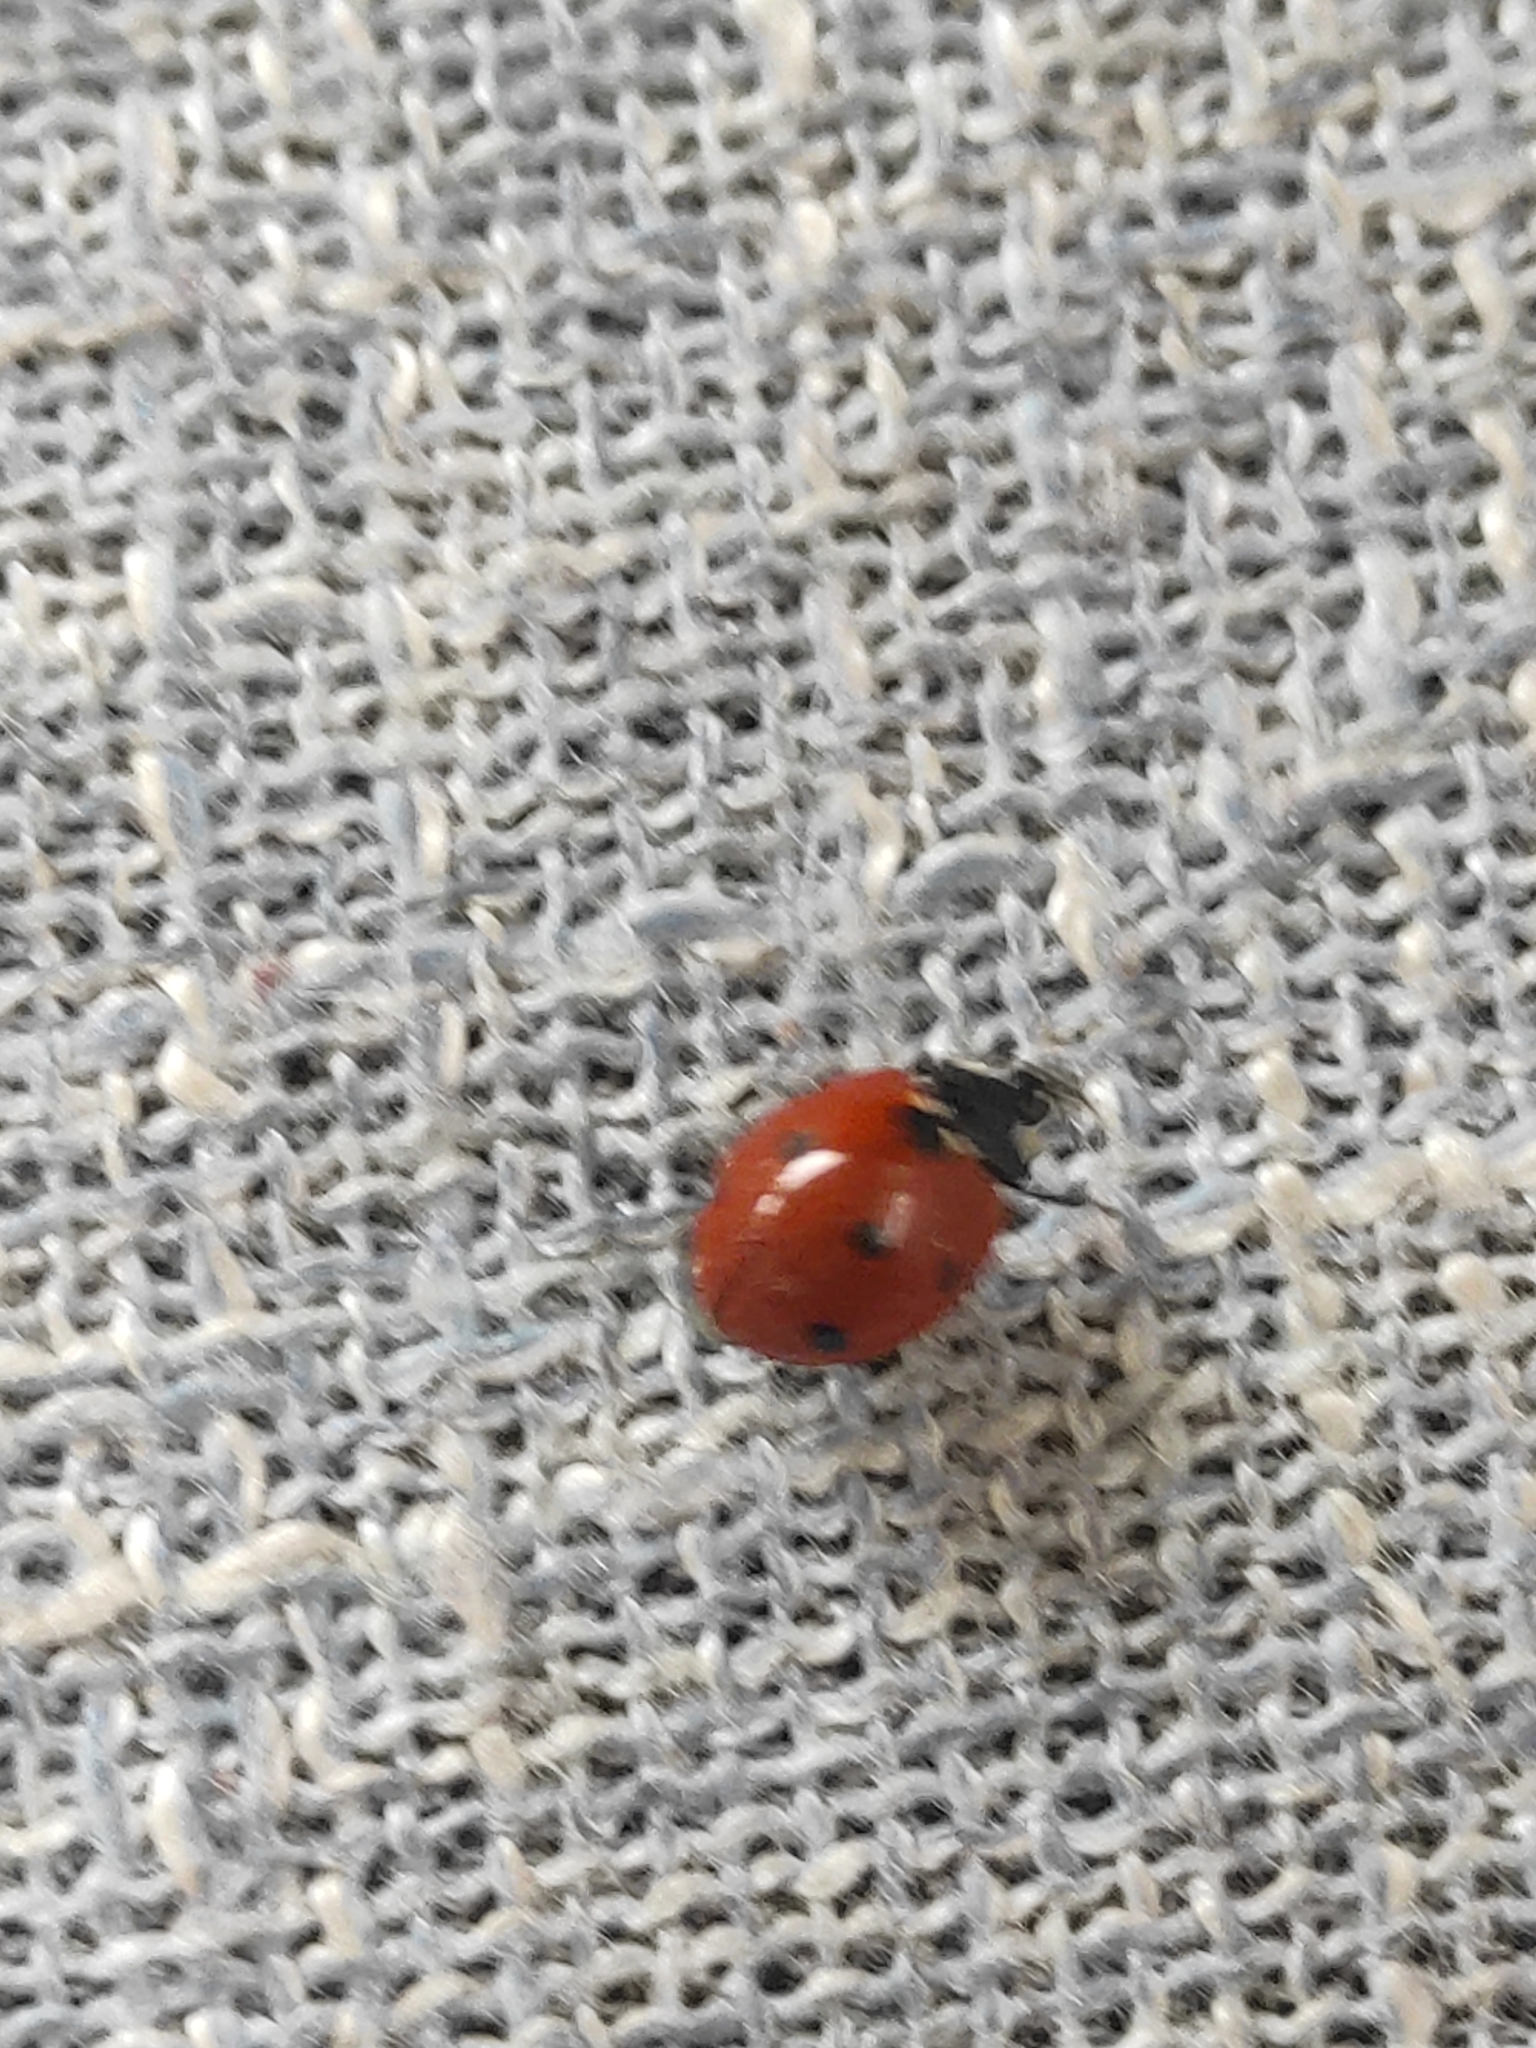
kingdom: Animalia
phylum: Arthropoda
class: Insecta
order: Coleoptera
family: Coccinellidae
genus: Coccinella
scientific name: Coccinella septempunctata
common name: Sevenspotted lady beetle
